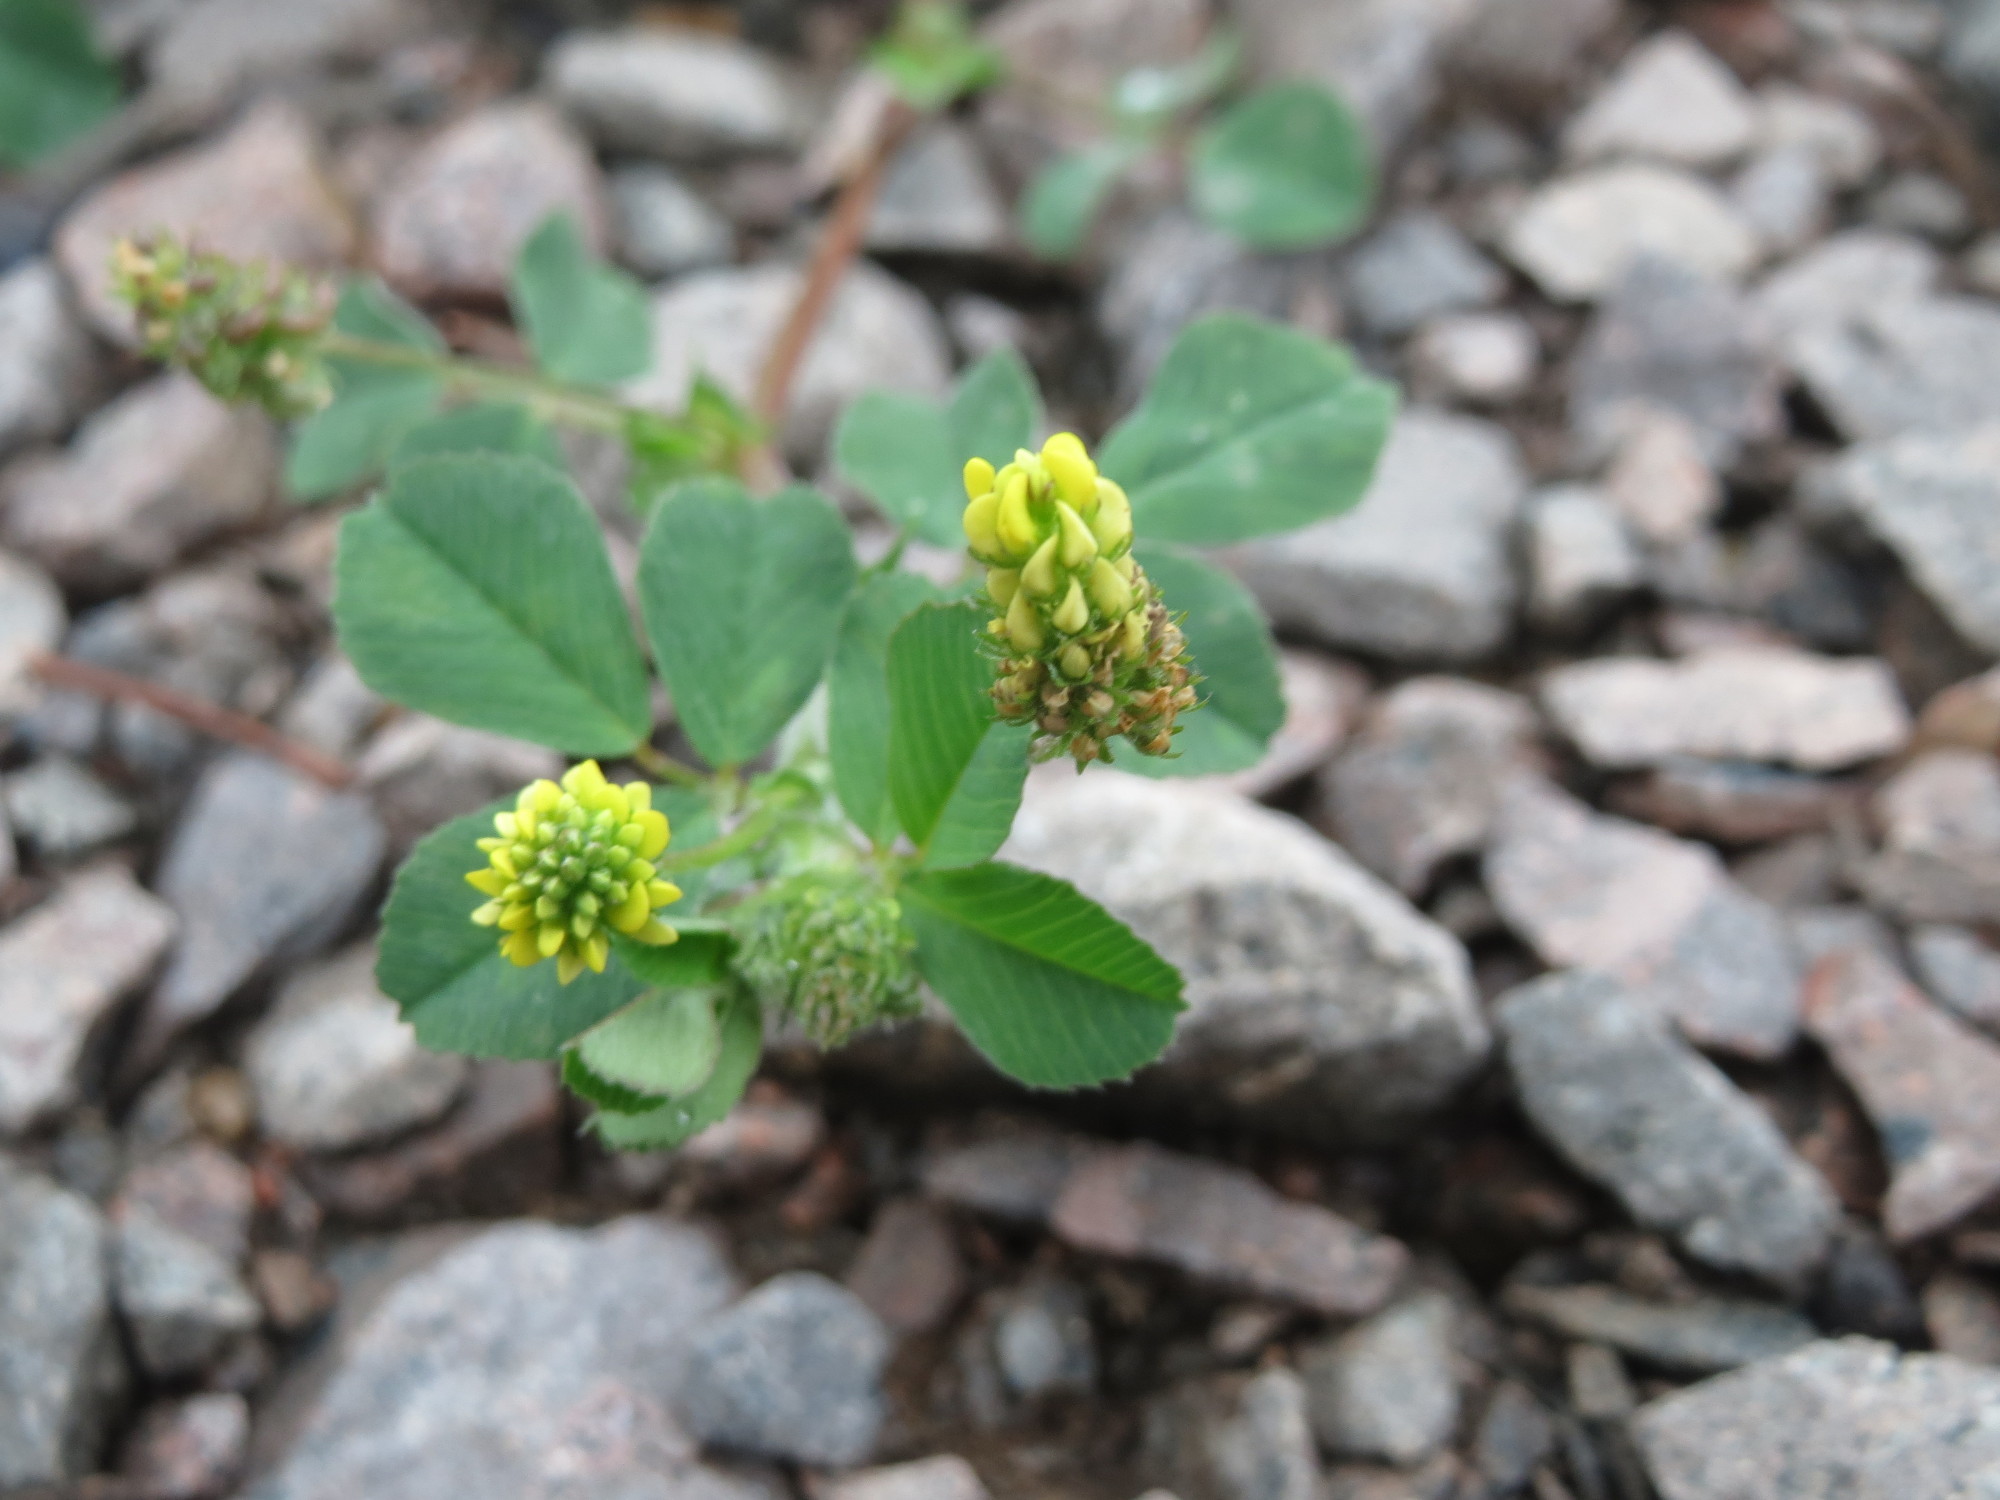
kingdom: Plantae
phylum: Tracheophyta
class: Magnoliopsida
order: Fabales
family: Fabaceae
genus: Medicago
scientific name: Medicago lupulina
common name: Black medick
